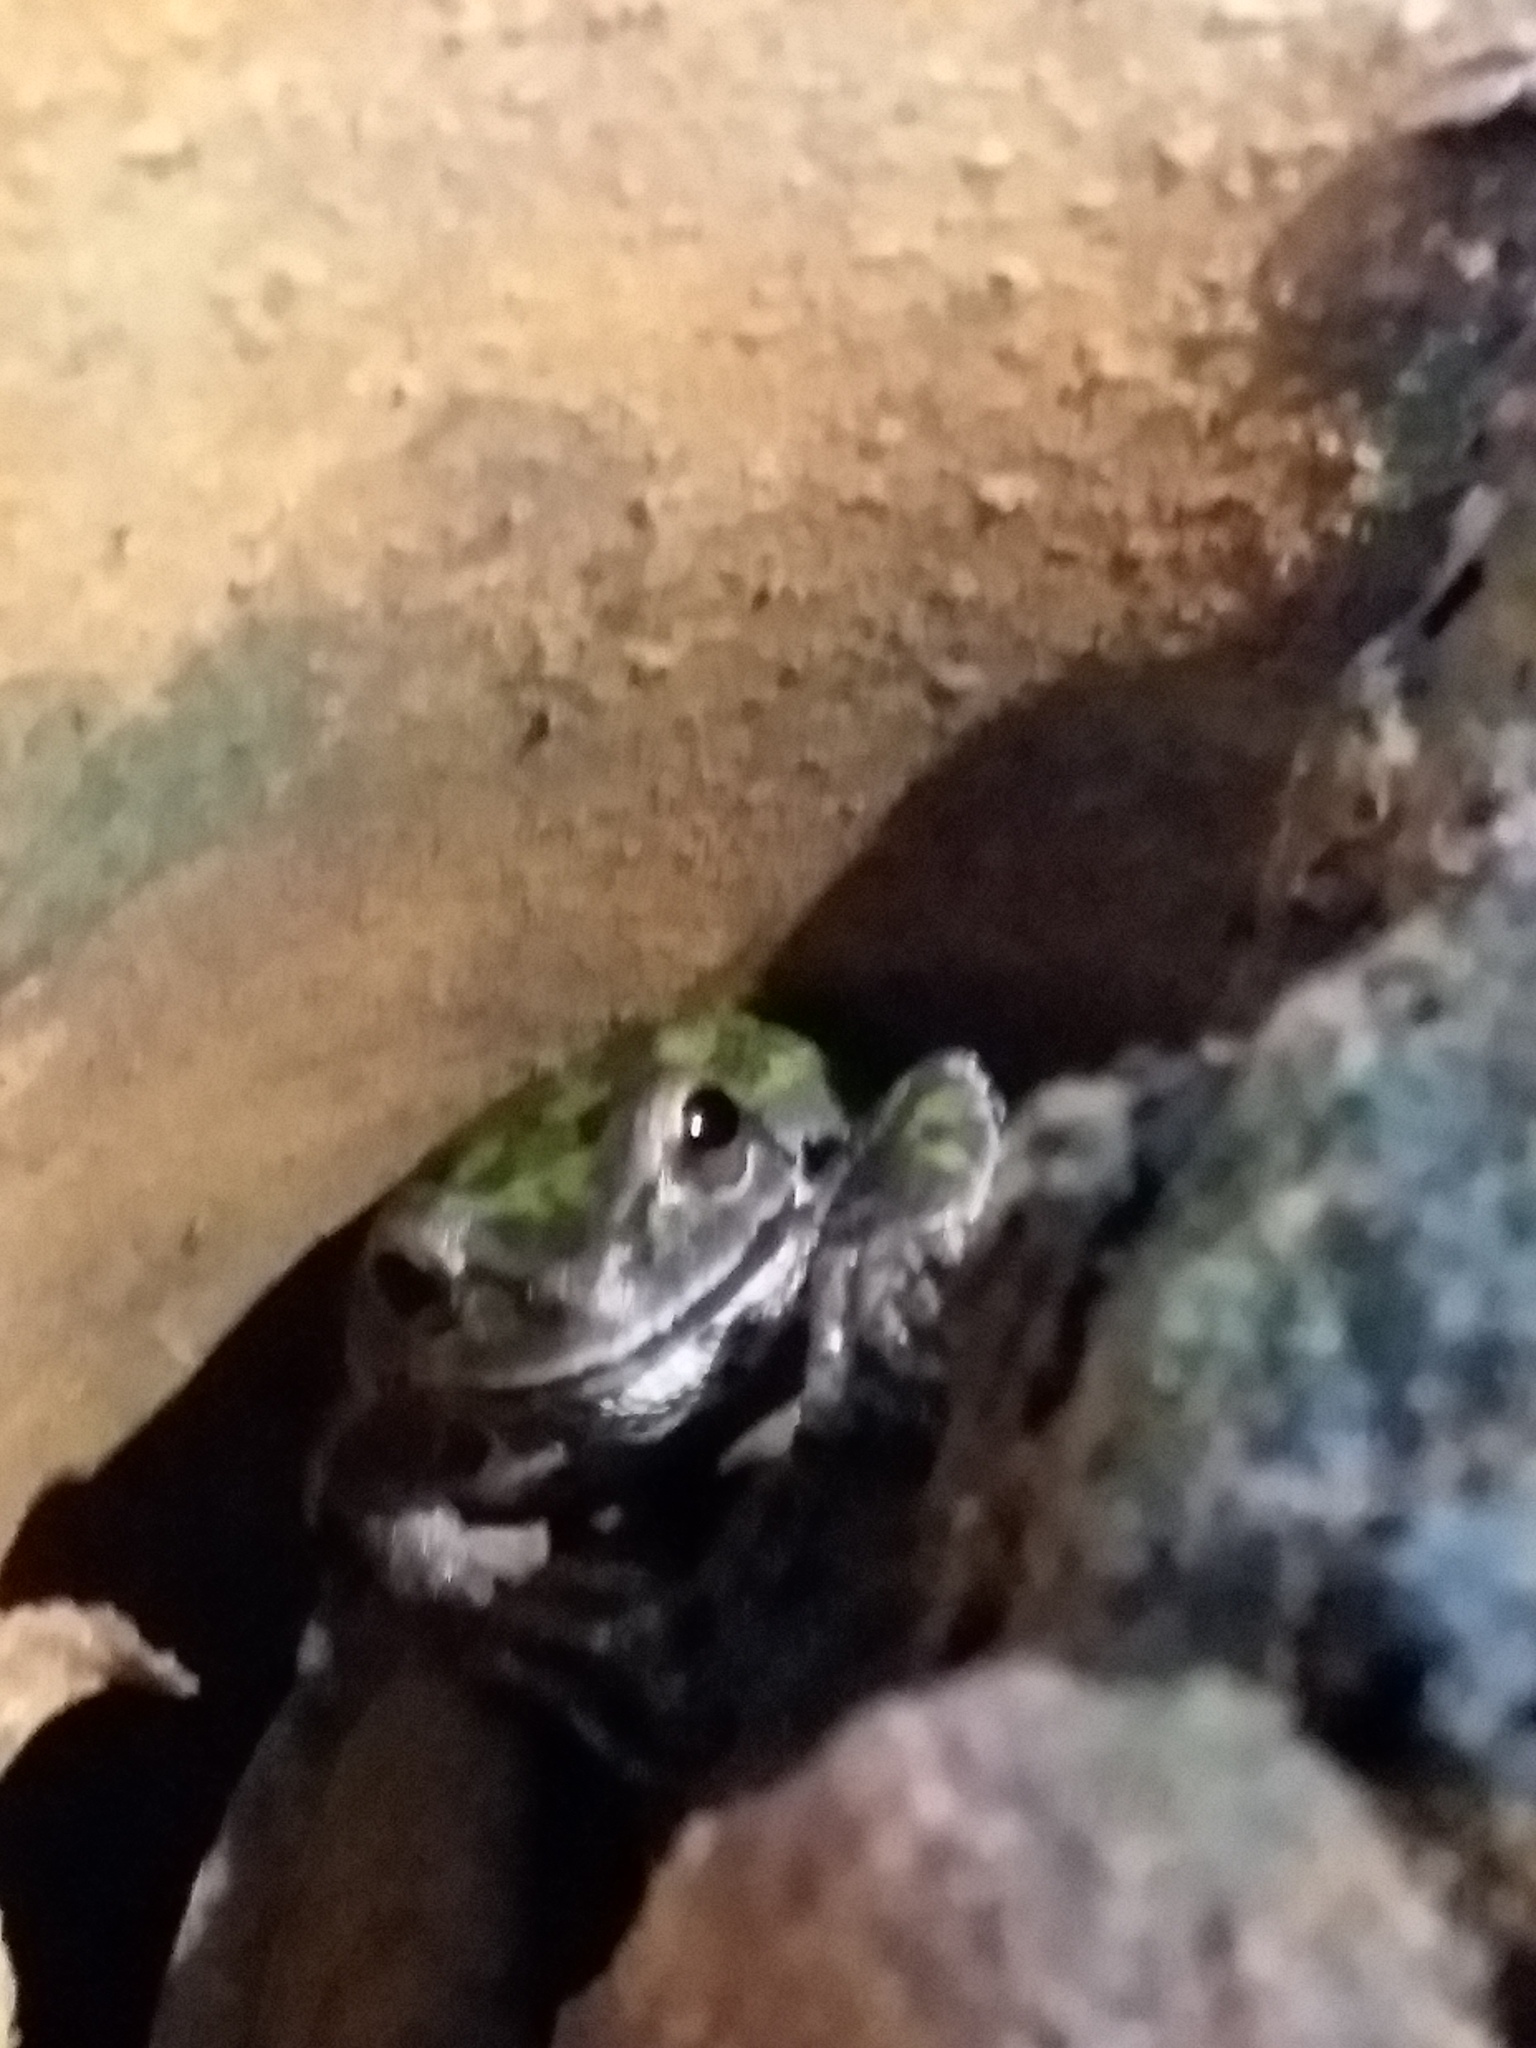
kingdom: Animalia
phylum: Chordata
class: Amphibia
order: Anura
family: Hylidae
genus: Pseudacris
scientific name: Pseudacris regilla
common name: Pacific chorus frog
